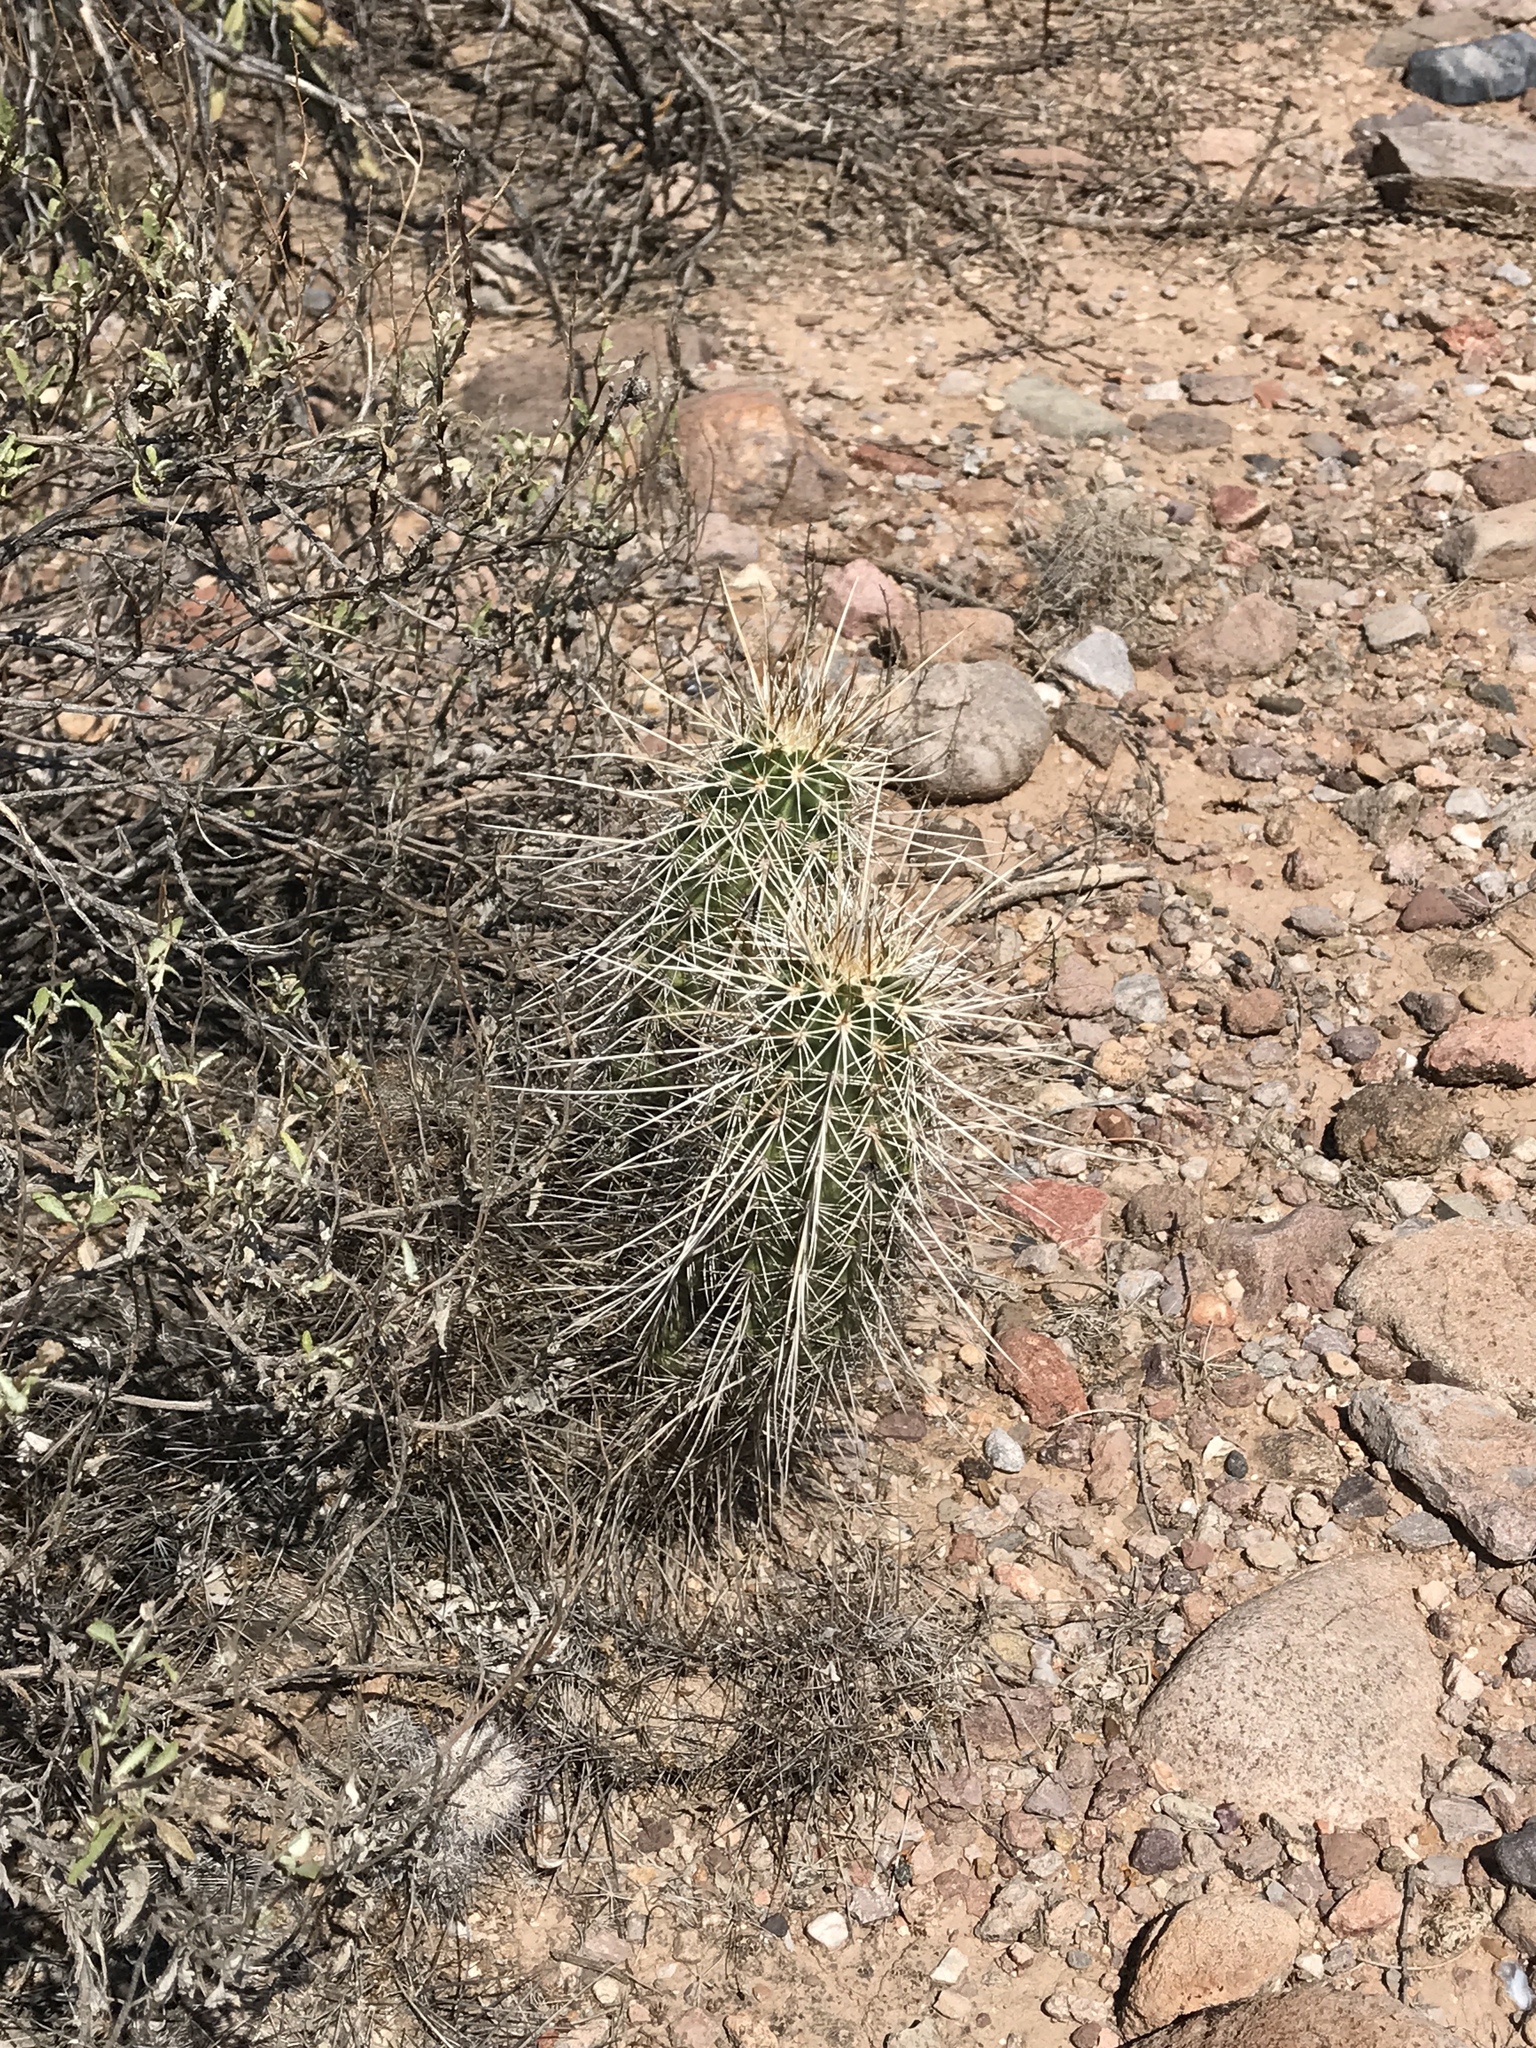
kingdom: Plantae
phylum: Tracheophyta
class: Magnoliopsida
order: Caryophyllales
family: Cactaceae
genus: Echinocereus
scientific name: Echinocereus fasciculatus
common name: Bundle hedgehog
